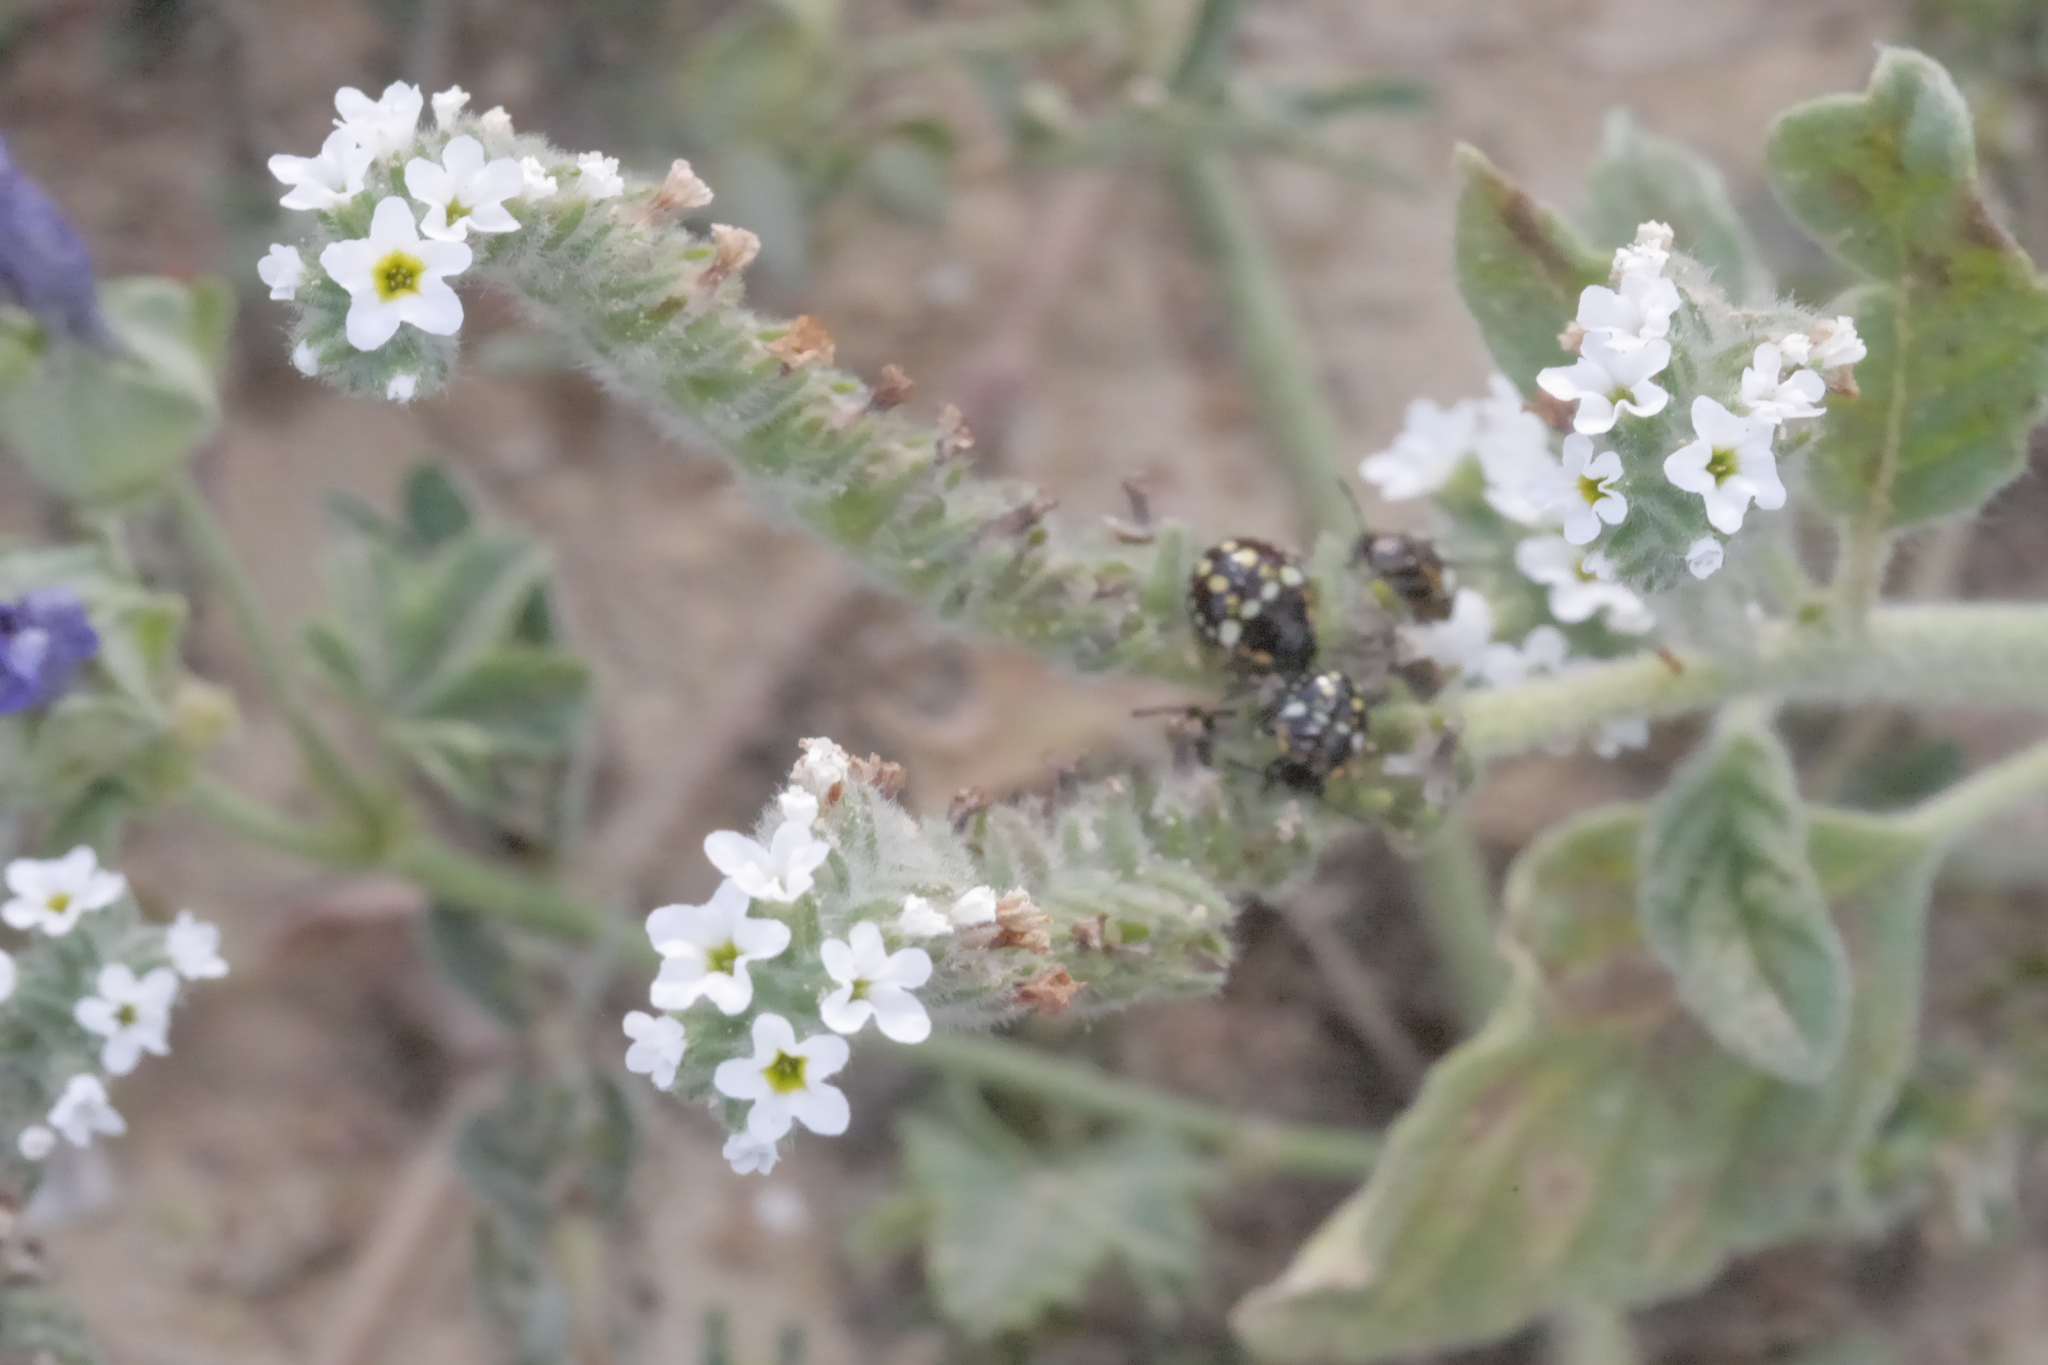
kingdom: Animalia
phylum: Arthropoda
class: Insecta
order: Hemiptera
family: Pentatomidae
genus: Nezara
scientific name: Nezara viridula
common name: Southern green stink bug
